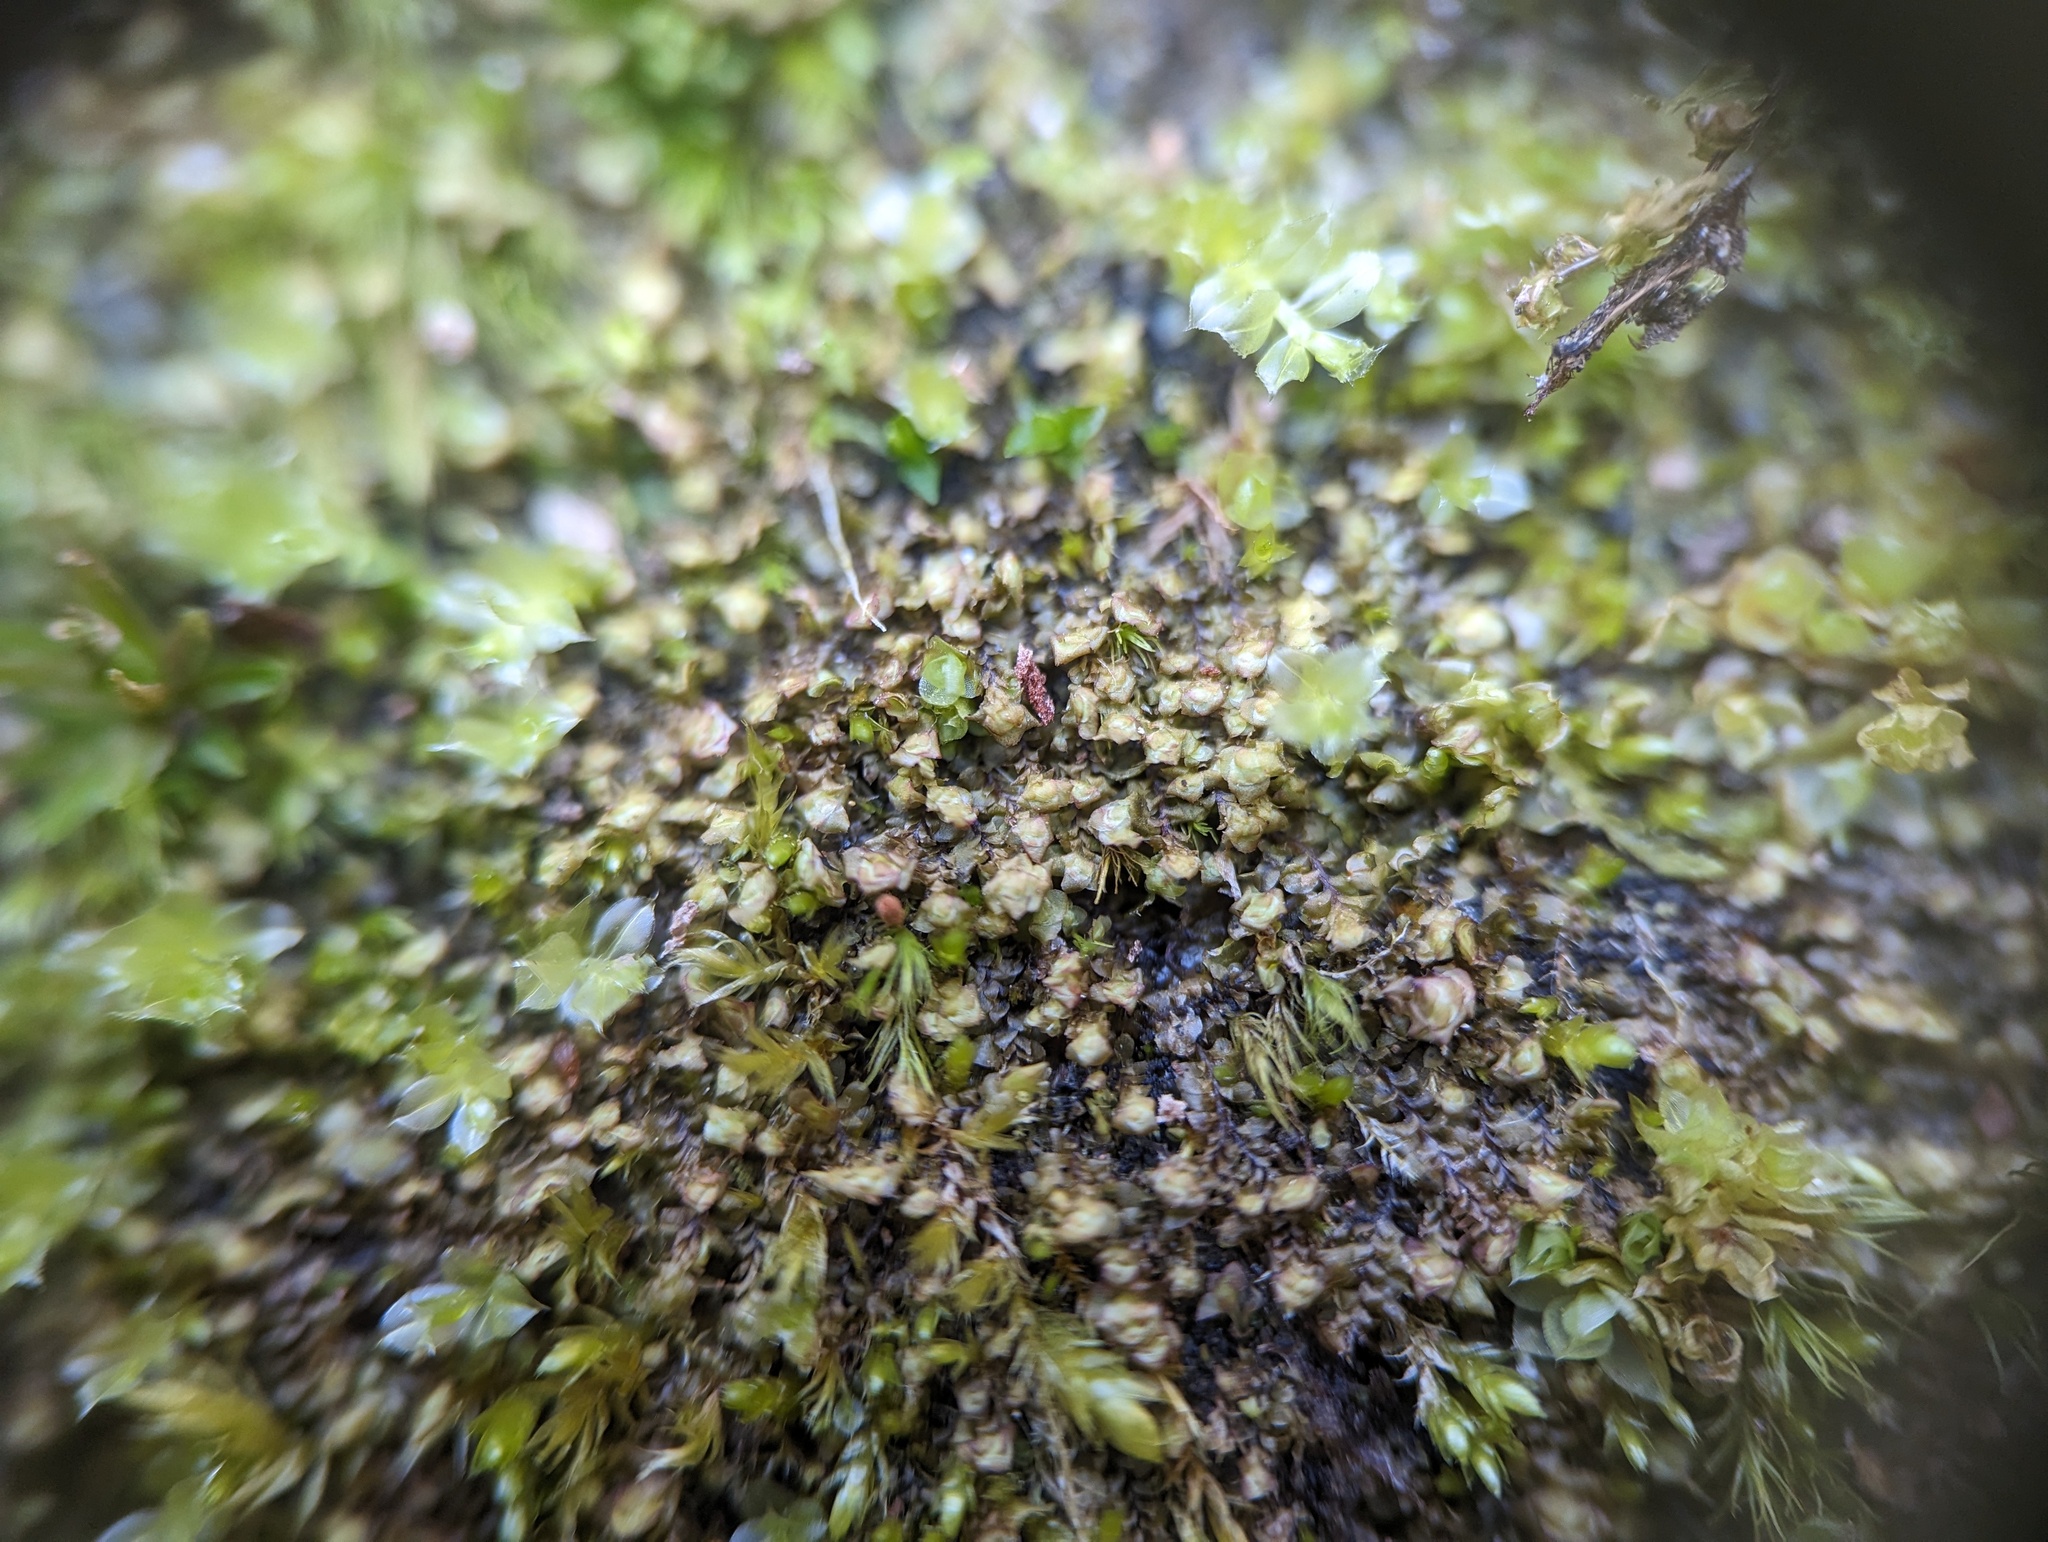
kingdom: Plantae
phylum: Marchantiophyta
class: Jungermanniopsida
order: Jungermanniales
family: Scapaniaceae
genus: Scapania
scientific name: Scapania nemorea
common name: Grove earwort
